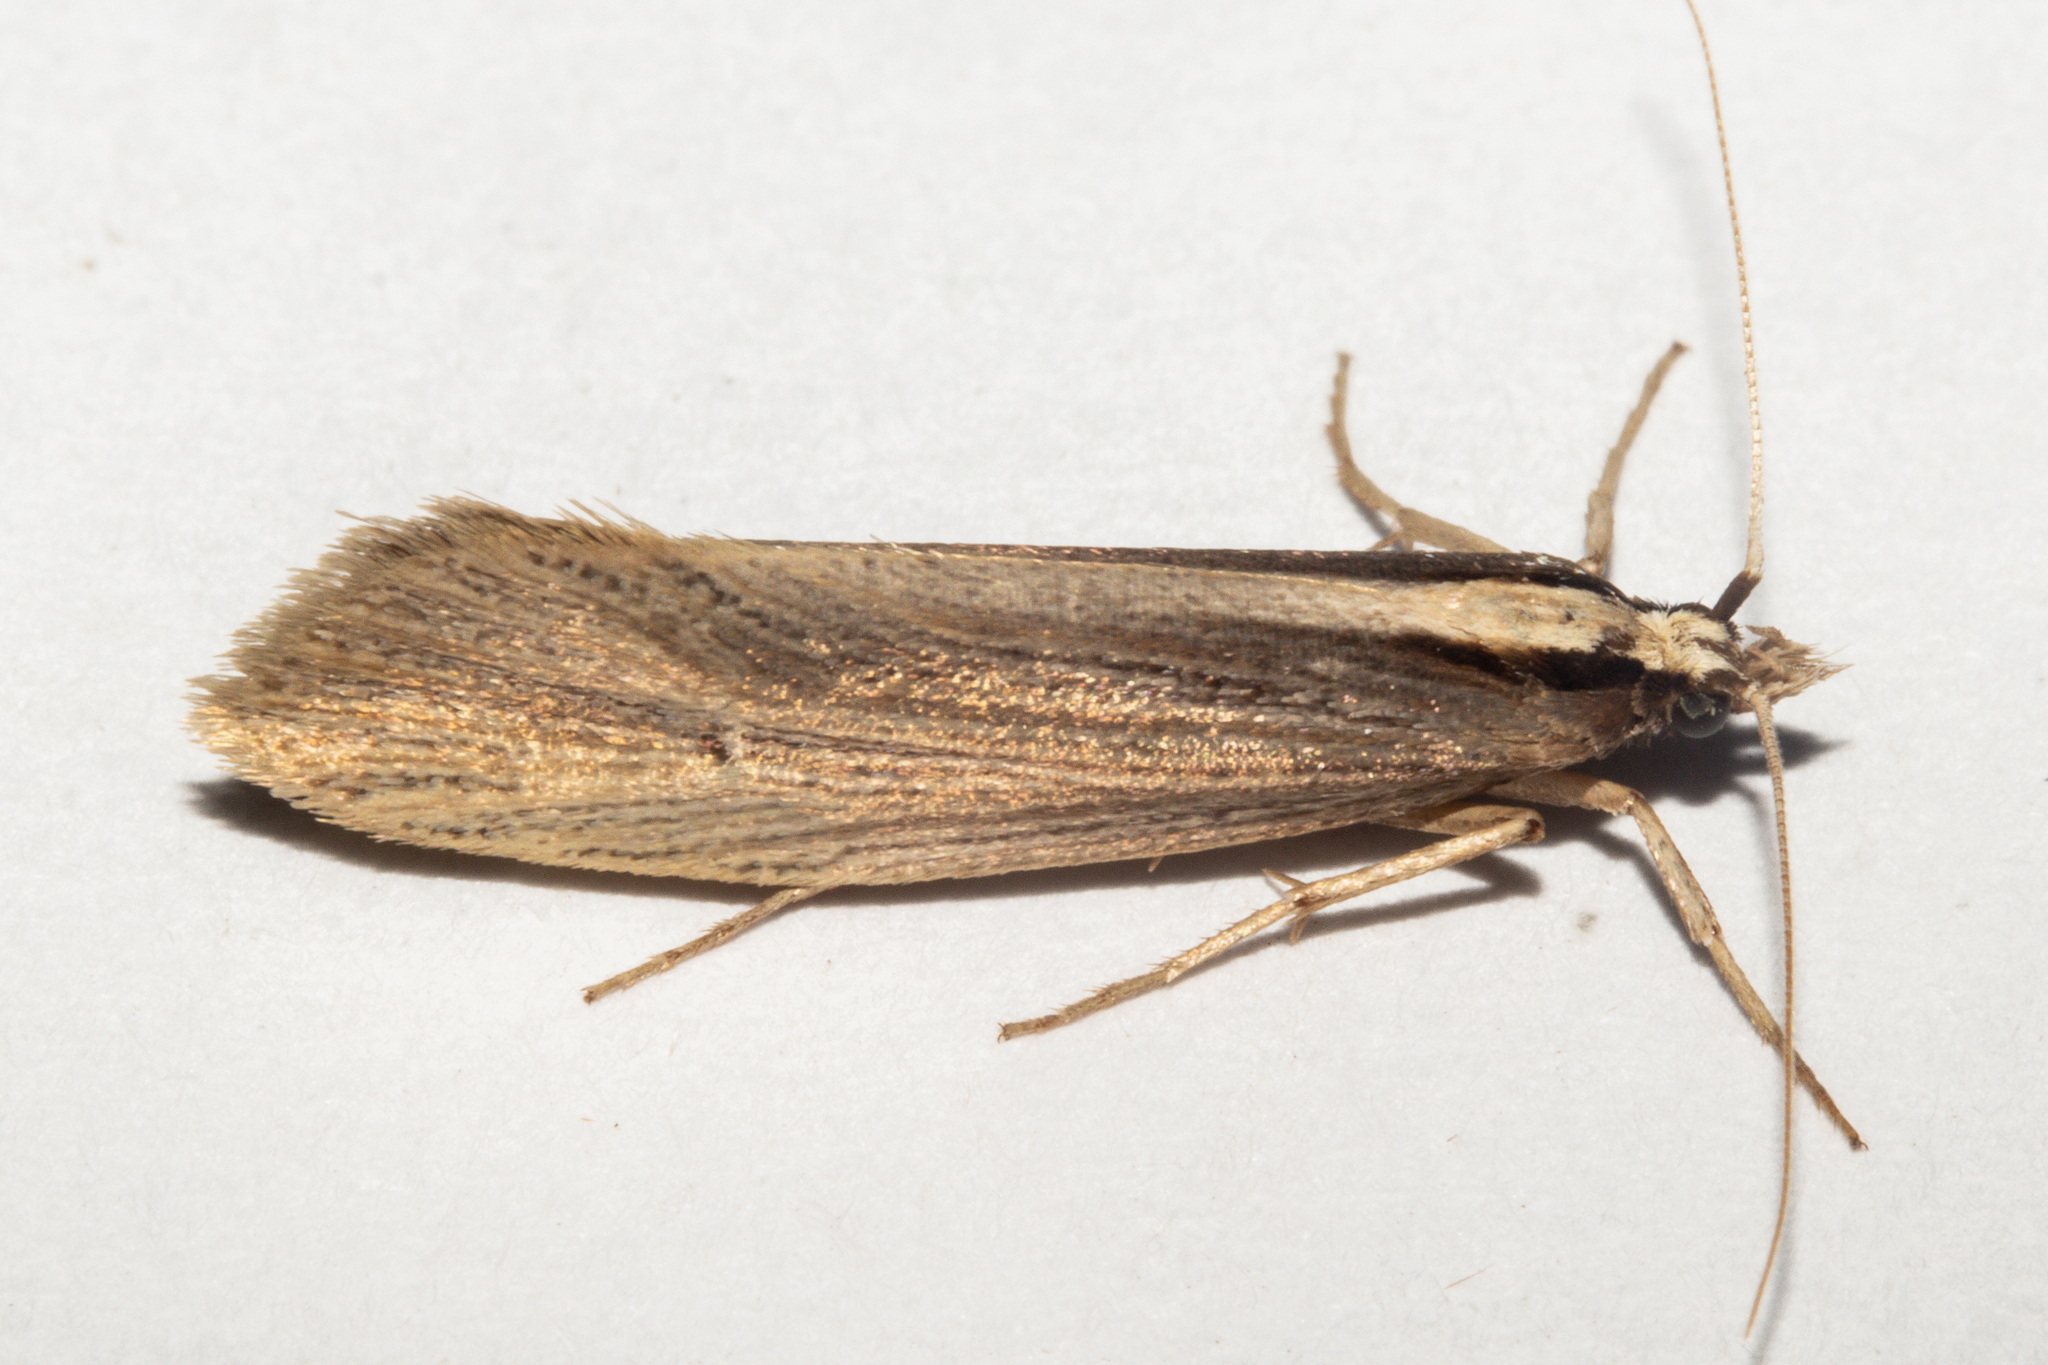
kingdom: Animalia
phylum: Arthropoda
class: Insecta
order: Lepidoptera
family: Plutellidae
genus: Proditrix
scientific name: Proditrix megalynta
